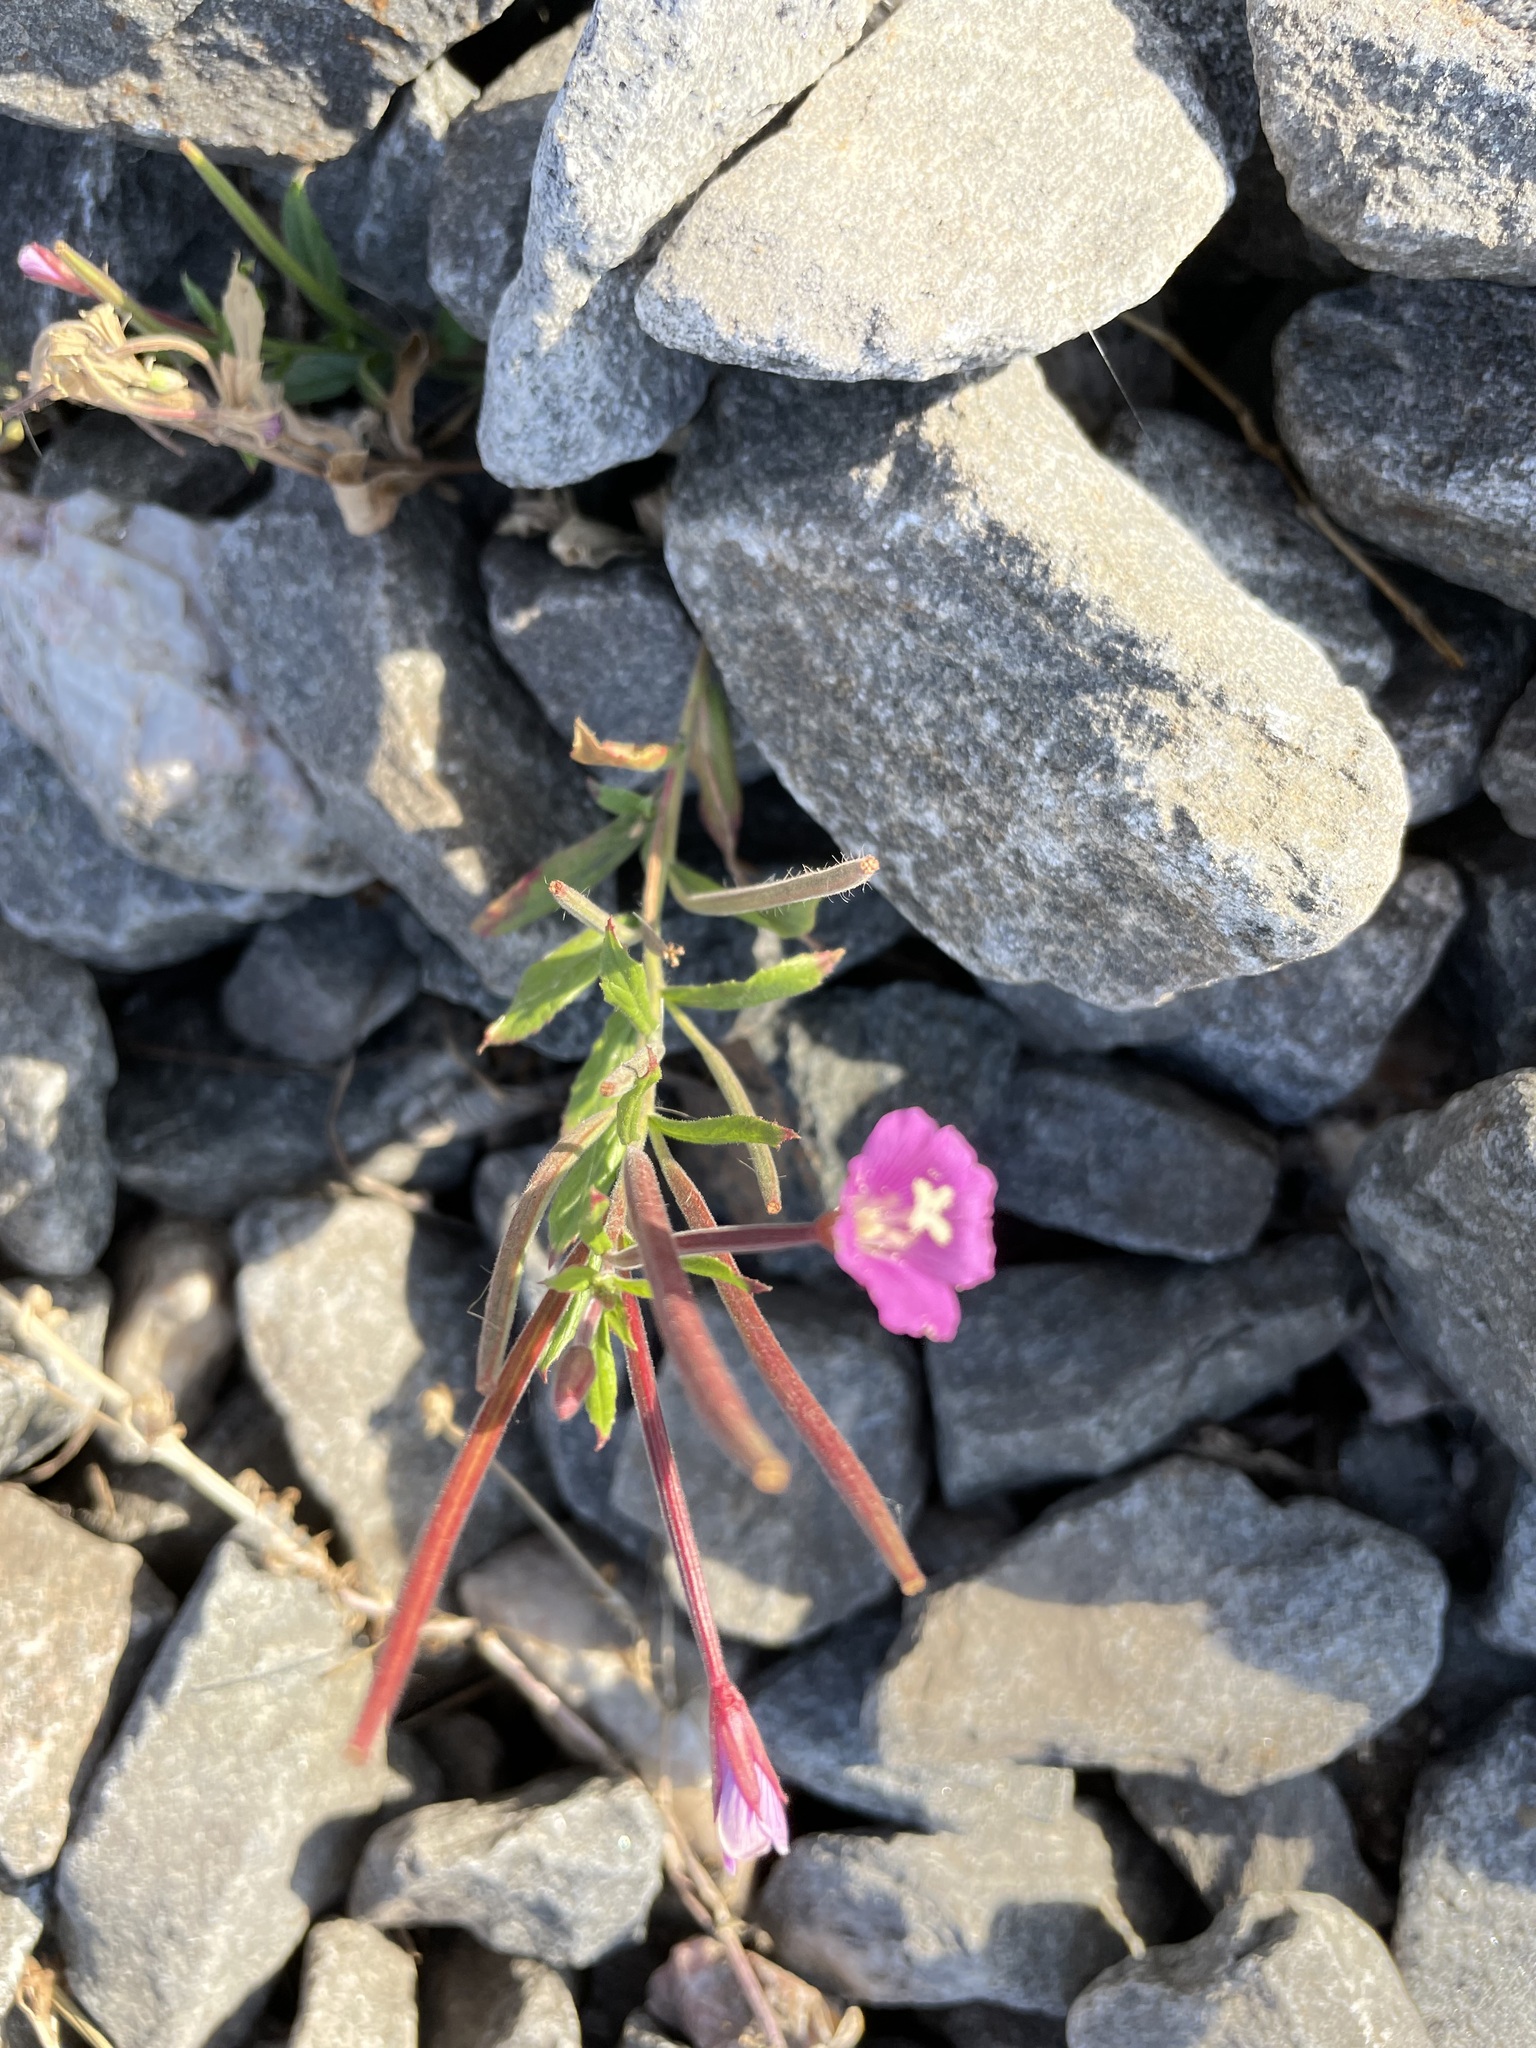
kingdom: Plantae
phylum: Tracheophyta
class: Magnoliopsida
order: Myrtales
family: Onagraceae
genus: Epilobium
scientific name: Epilobium hirsutum
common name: Great willowherb
